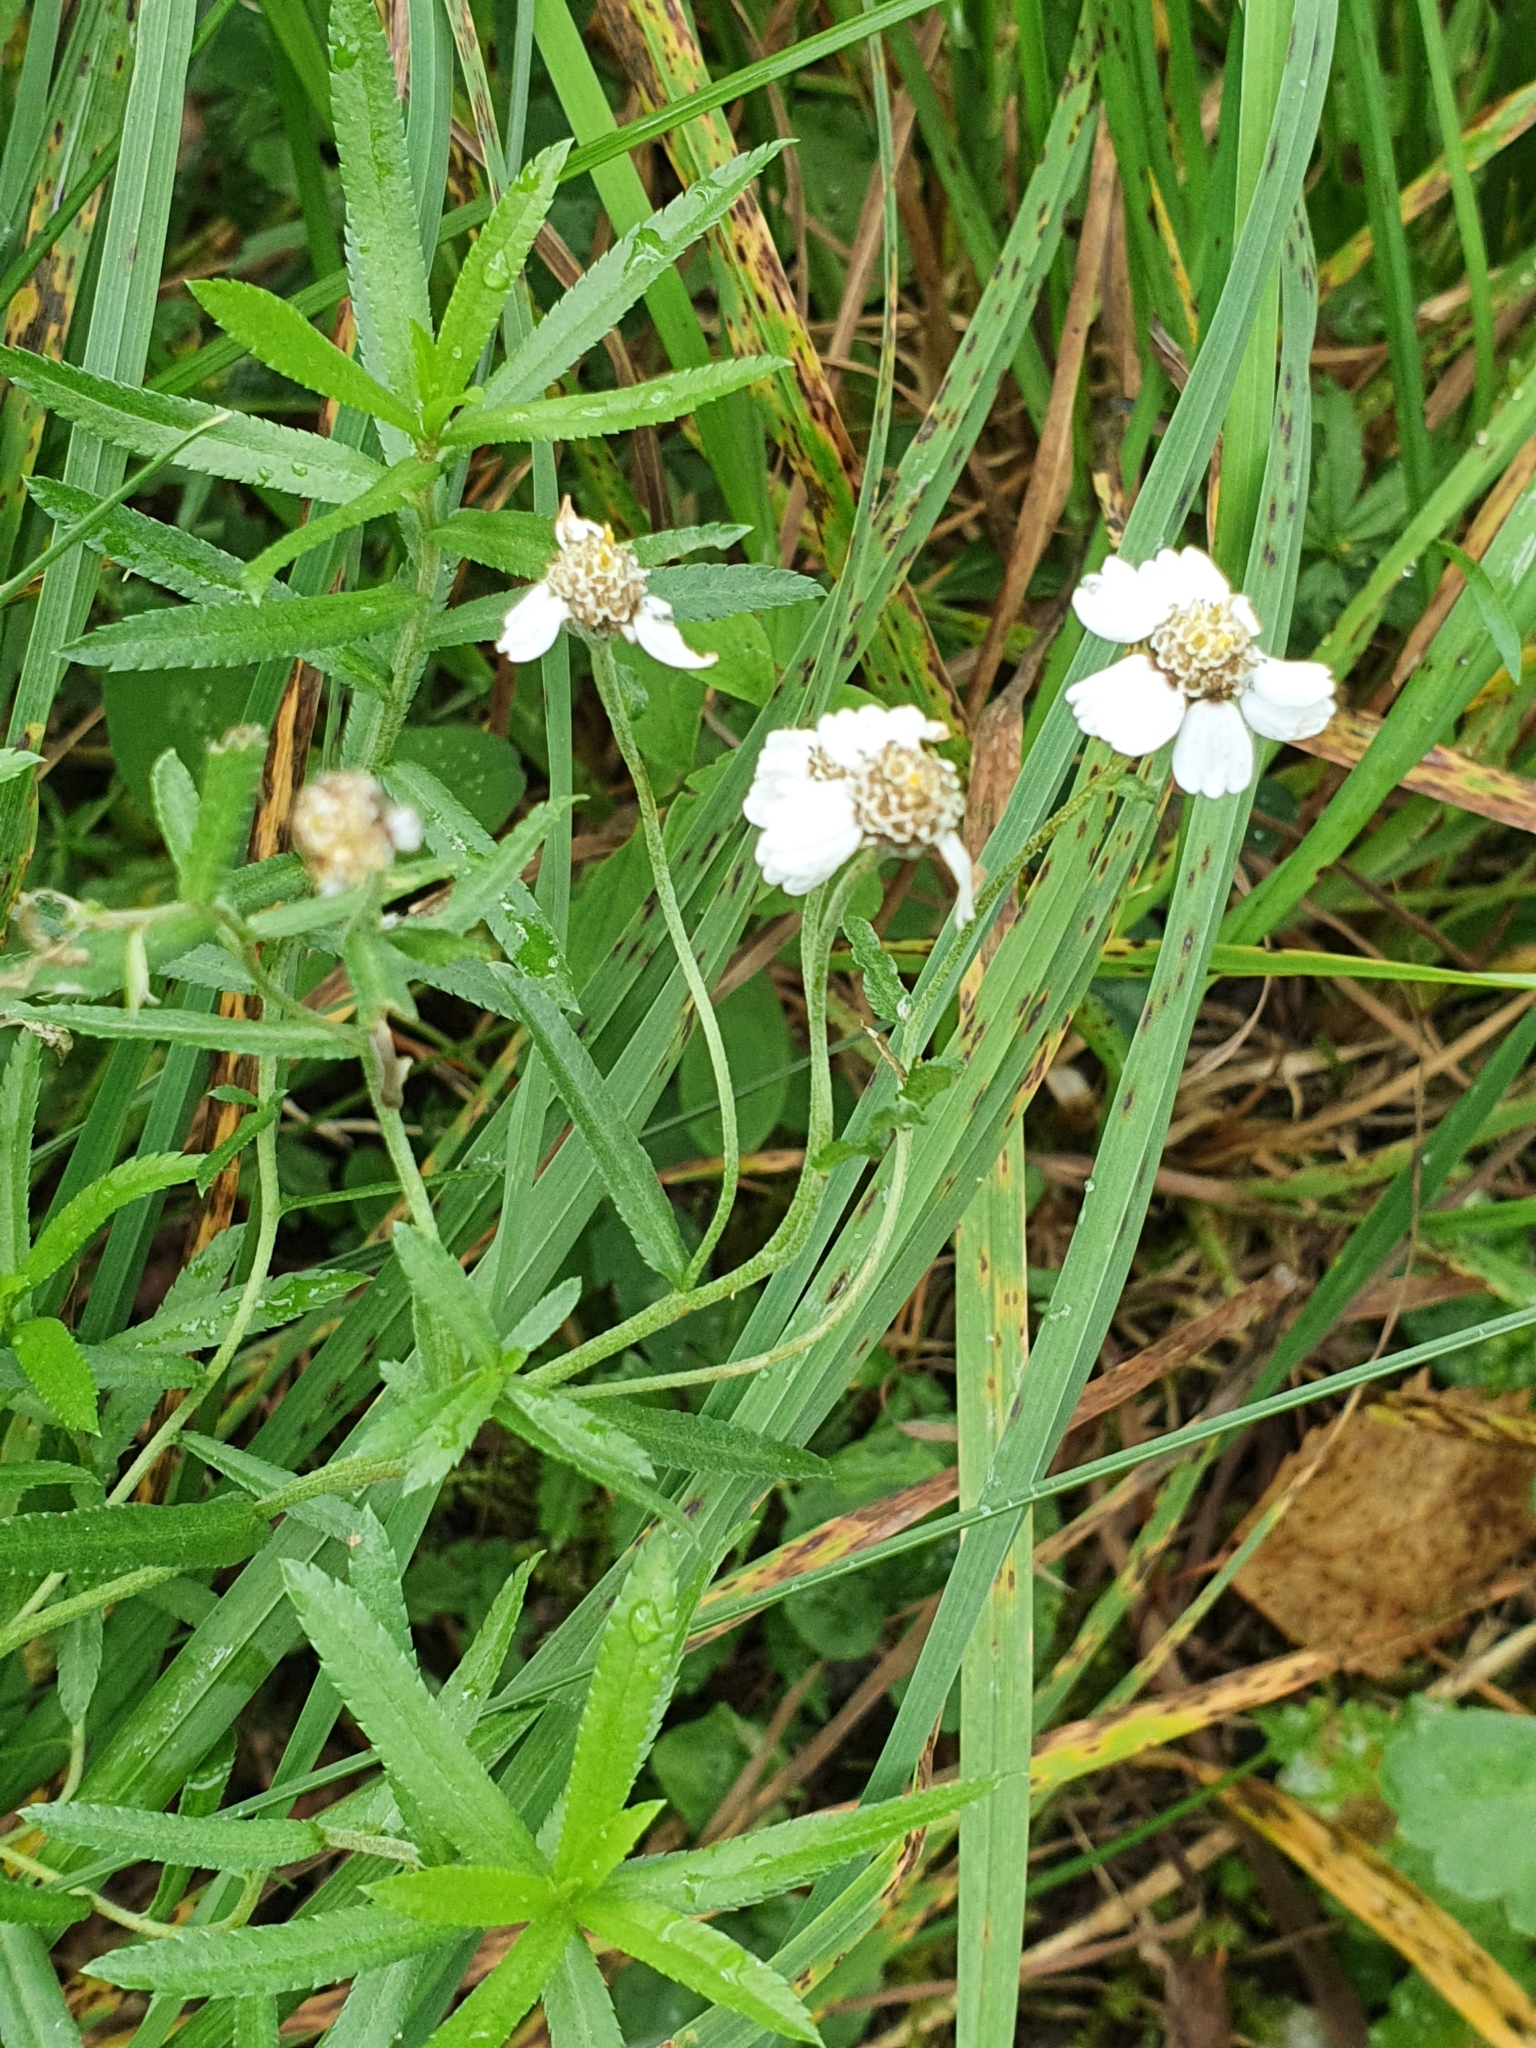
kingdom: Plantae
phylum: Tracheophyta
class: Magnoliopsida
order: Asterales
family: Asteraceae
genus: Achillea
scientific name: Achillea ptarmica
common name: Sneezeweed
